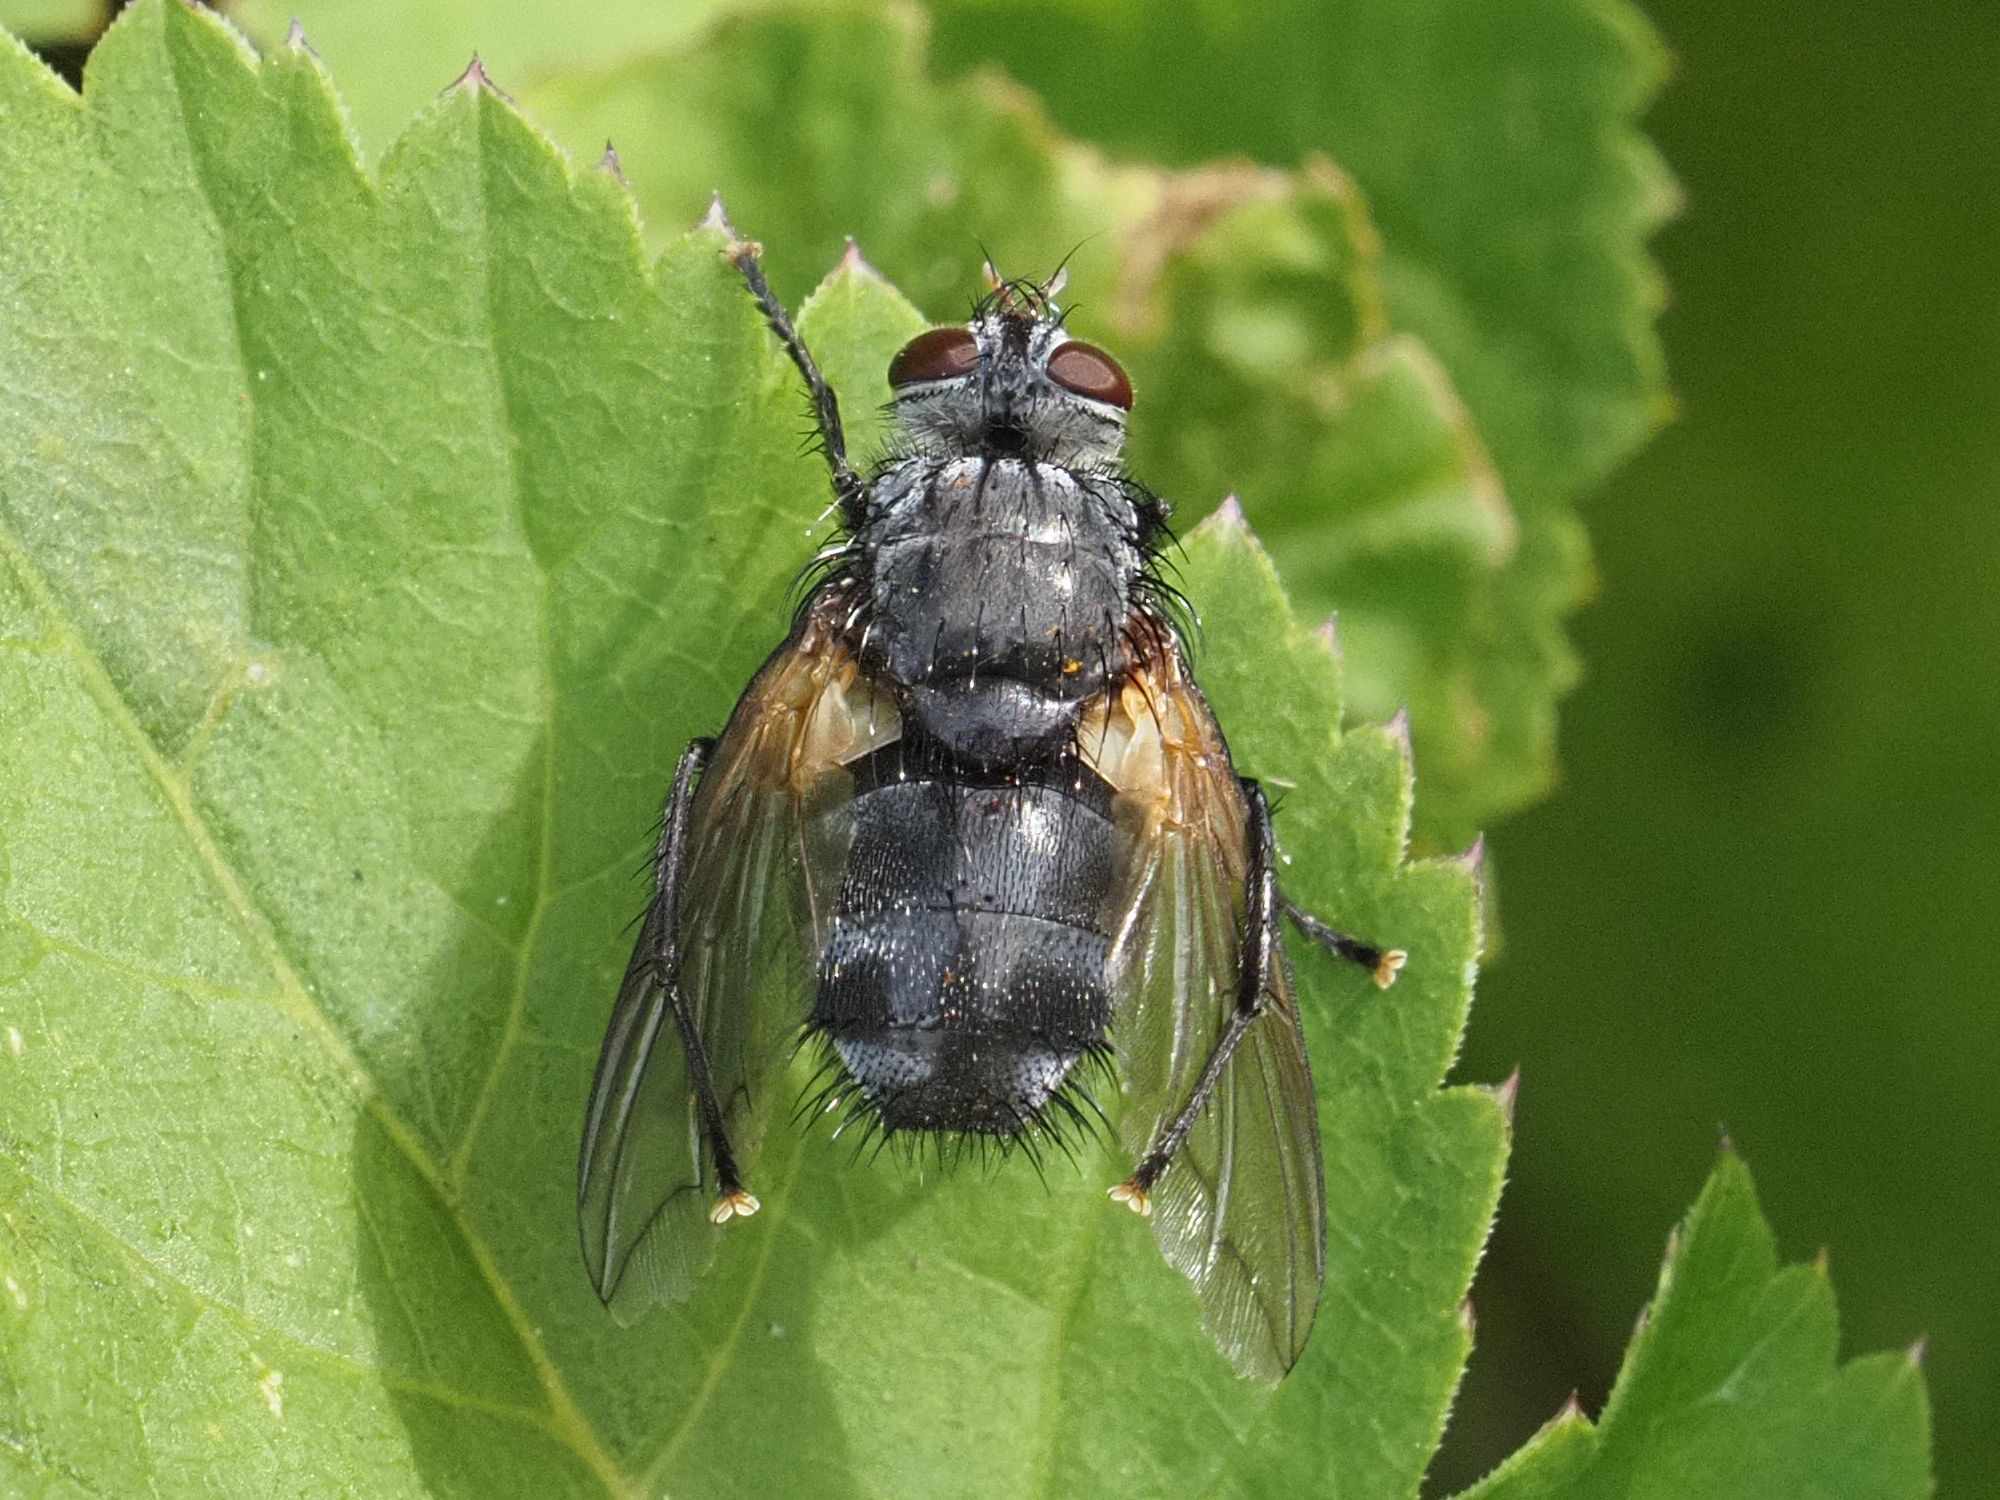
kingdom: Animalia
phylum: Arthropoda
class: Insecta
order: Diptera
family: Tachinidae
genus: Nemoraea
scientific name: Nemoraea pellucida
